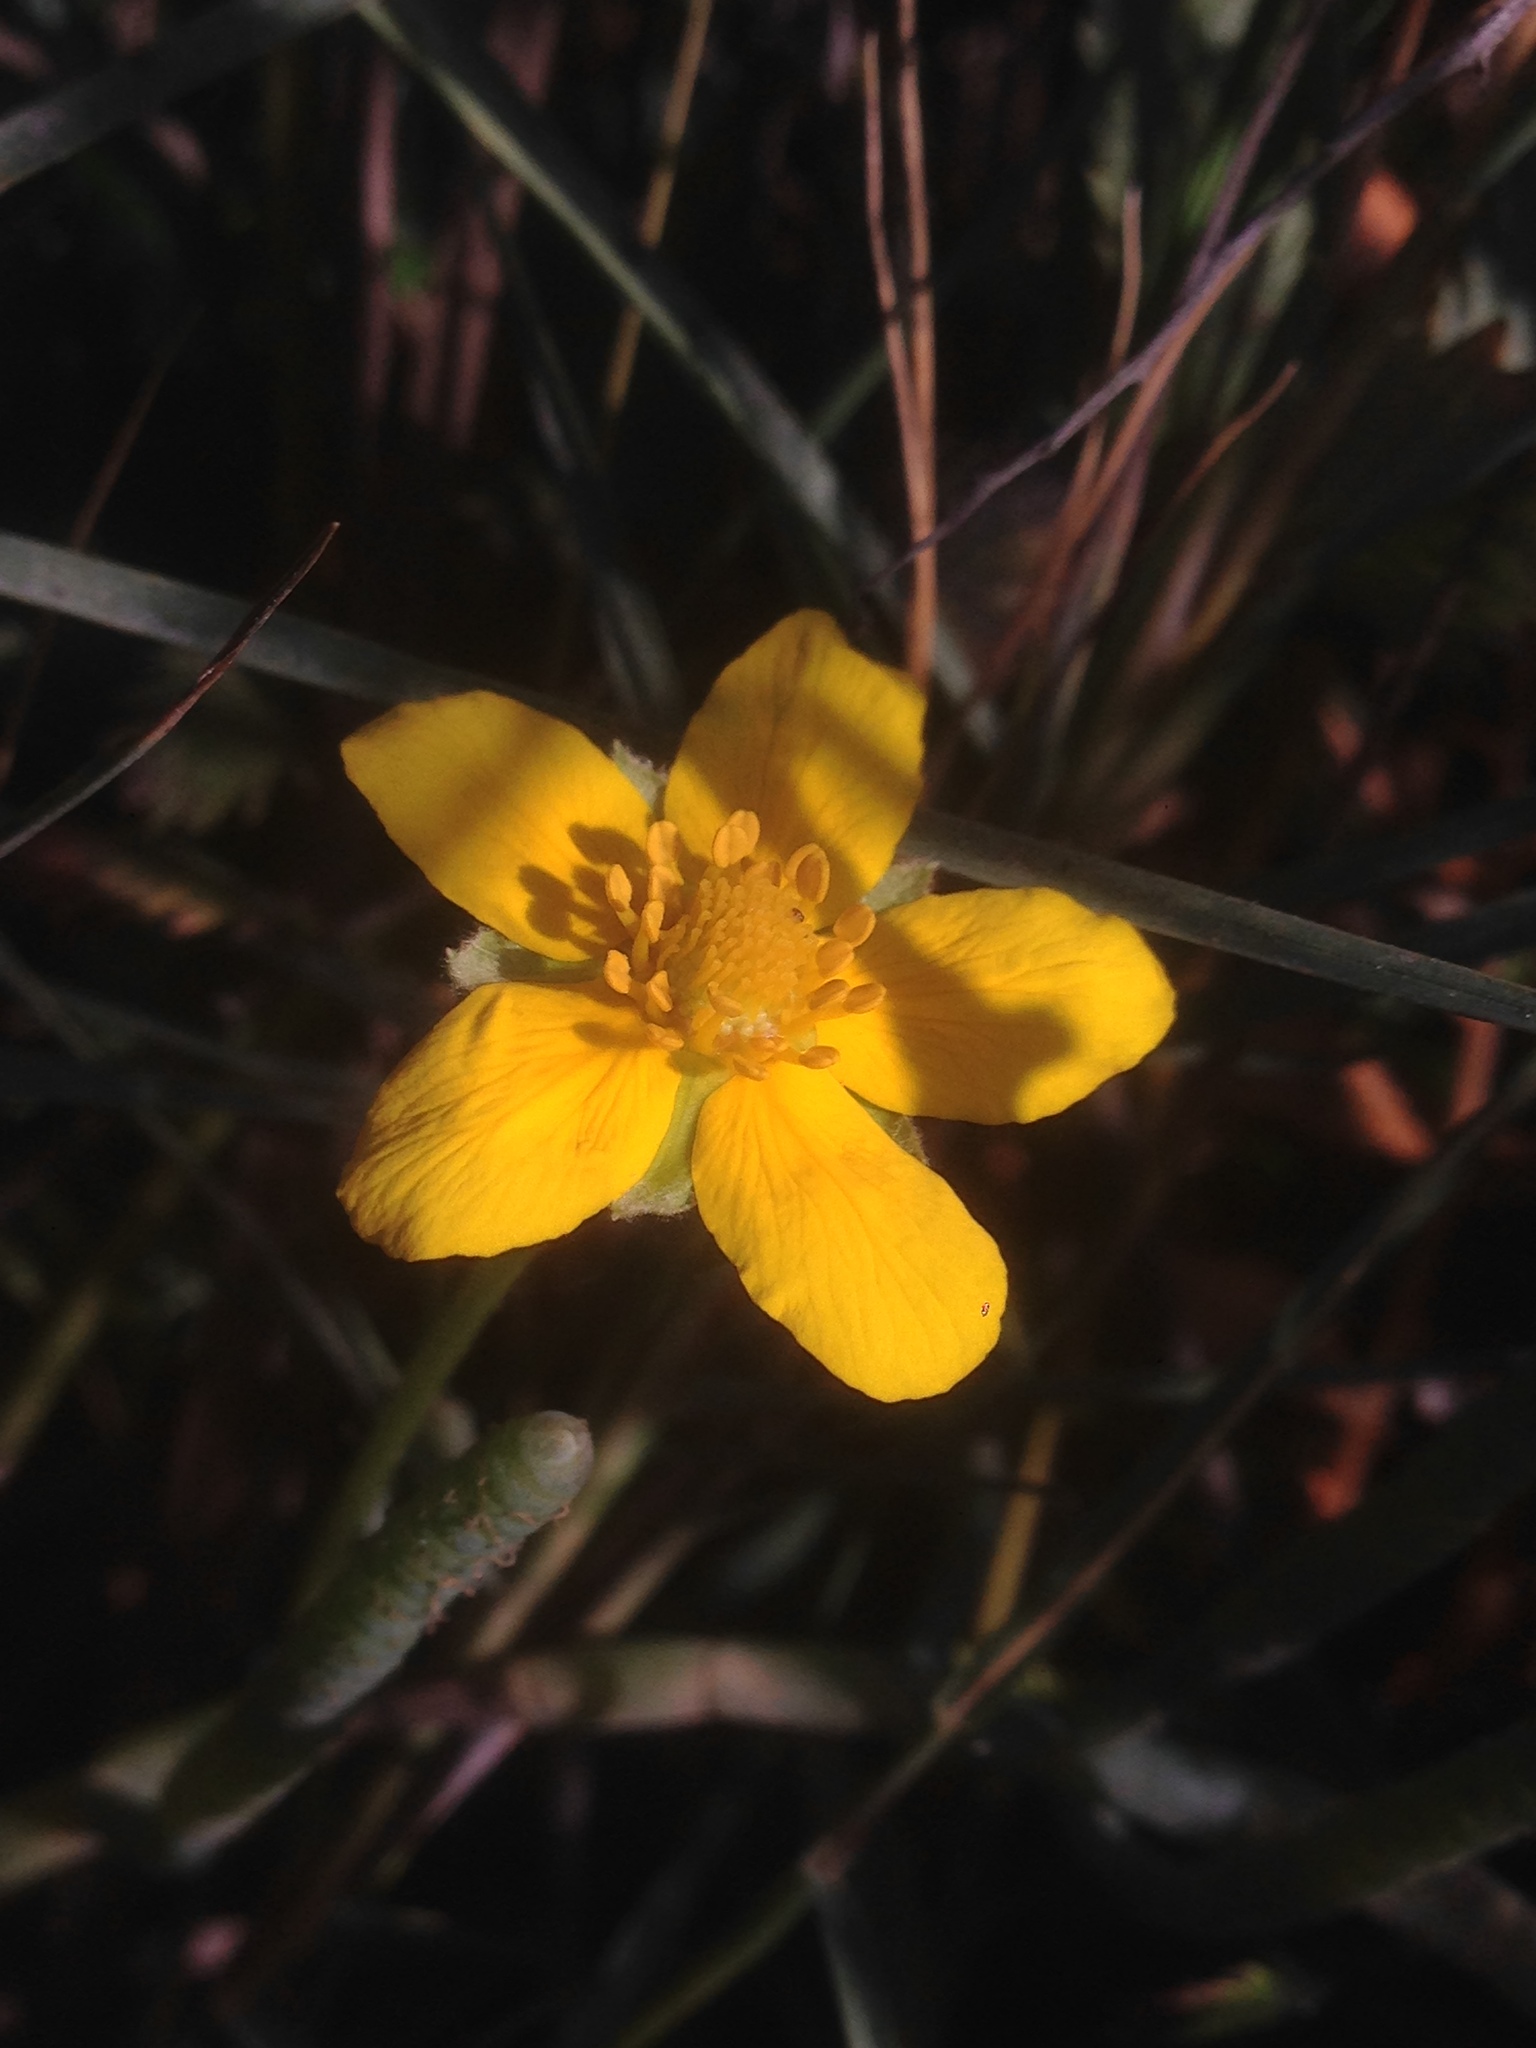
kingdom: Plantae
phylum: Tracheophyta
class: Magnoliopsida
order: Rosales
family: Rosaceae
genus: Argentina
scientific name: Argentina anserina
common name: Common silverweed
